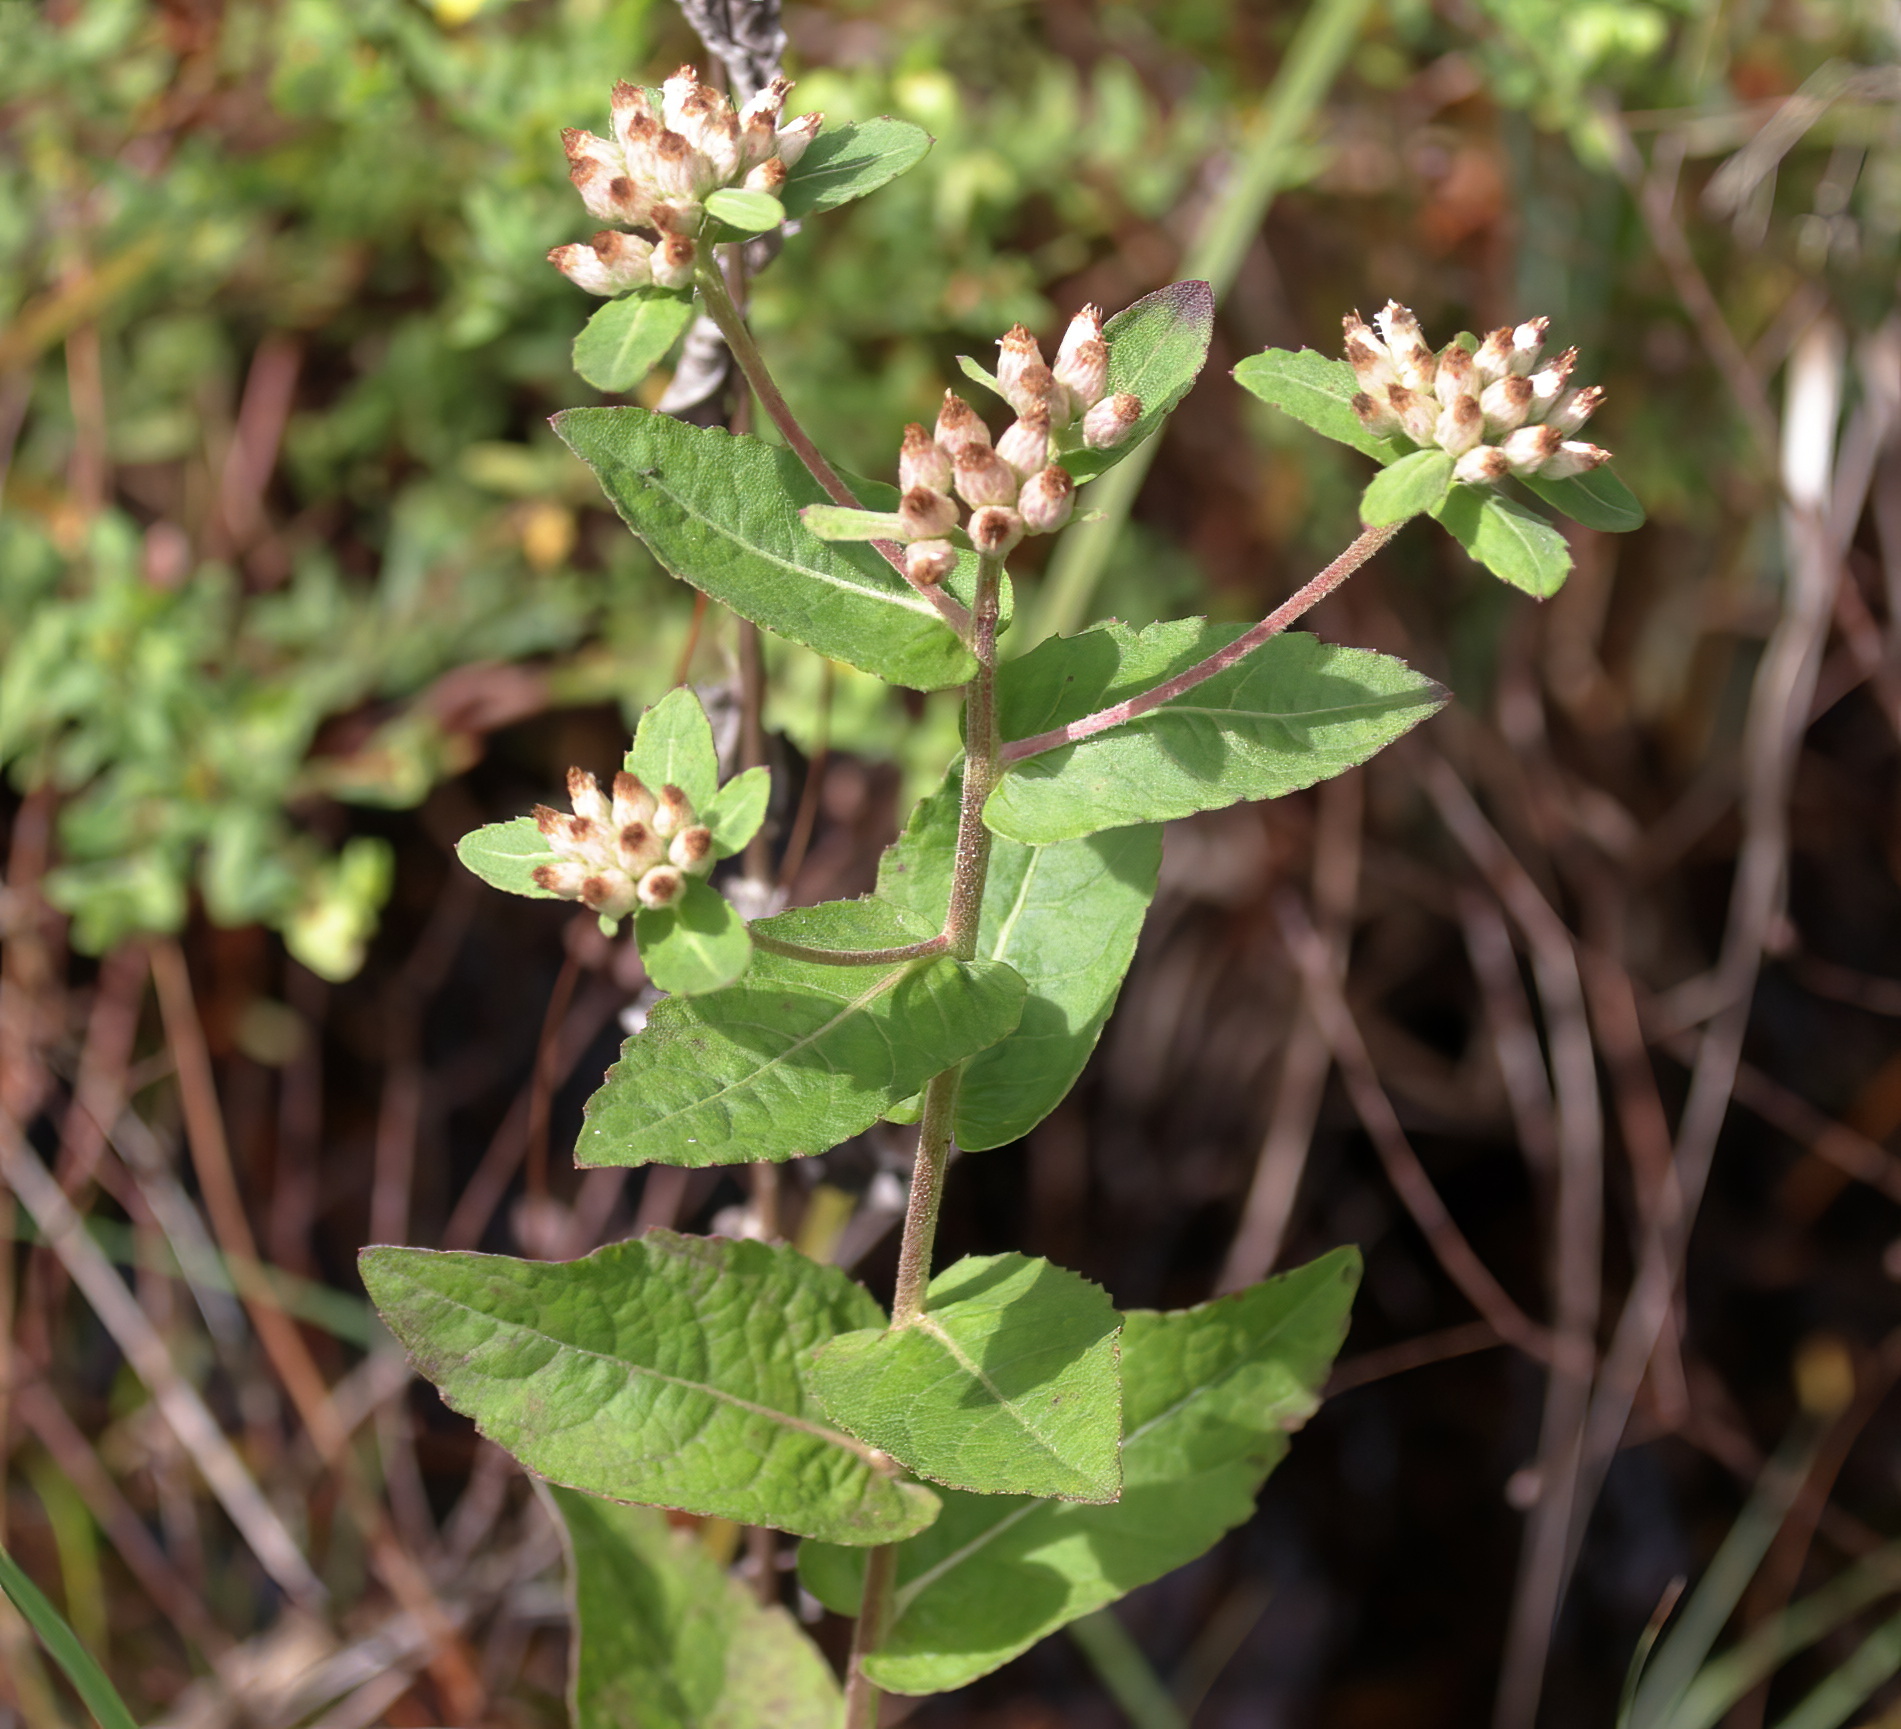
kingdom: Plantae
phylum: Tracheophyta
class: Magnoliopsida
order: Asterales
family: Asteraceae
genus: Pluchea
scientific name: Pluchea foetida
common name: Stinking camphorweed
